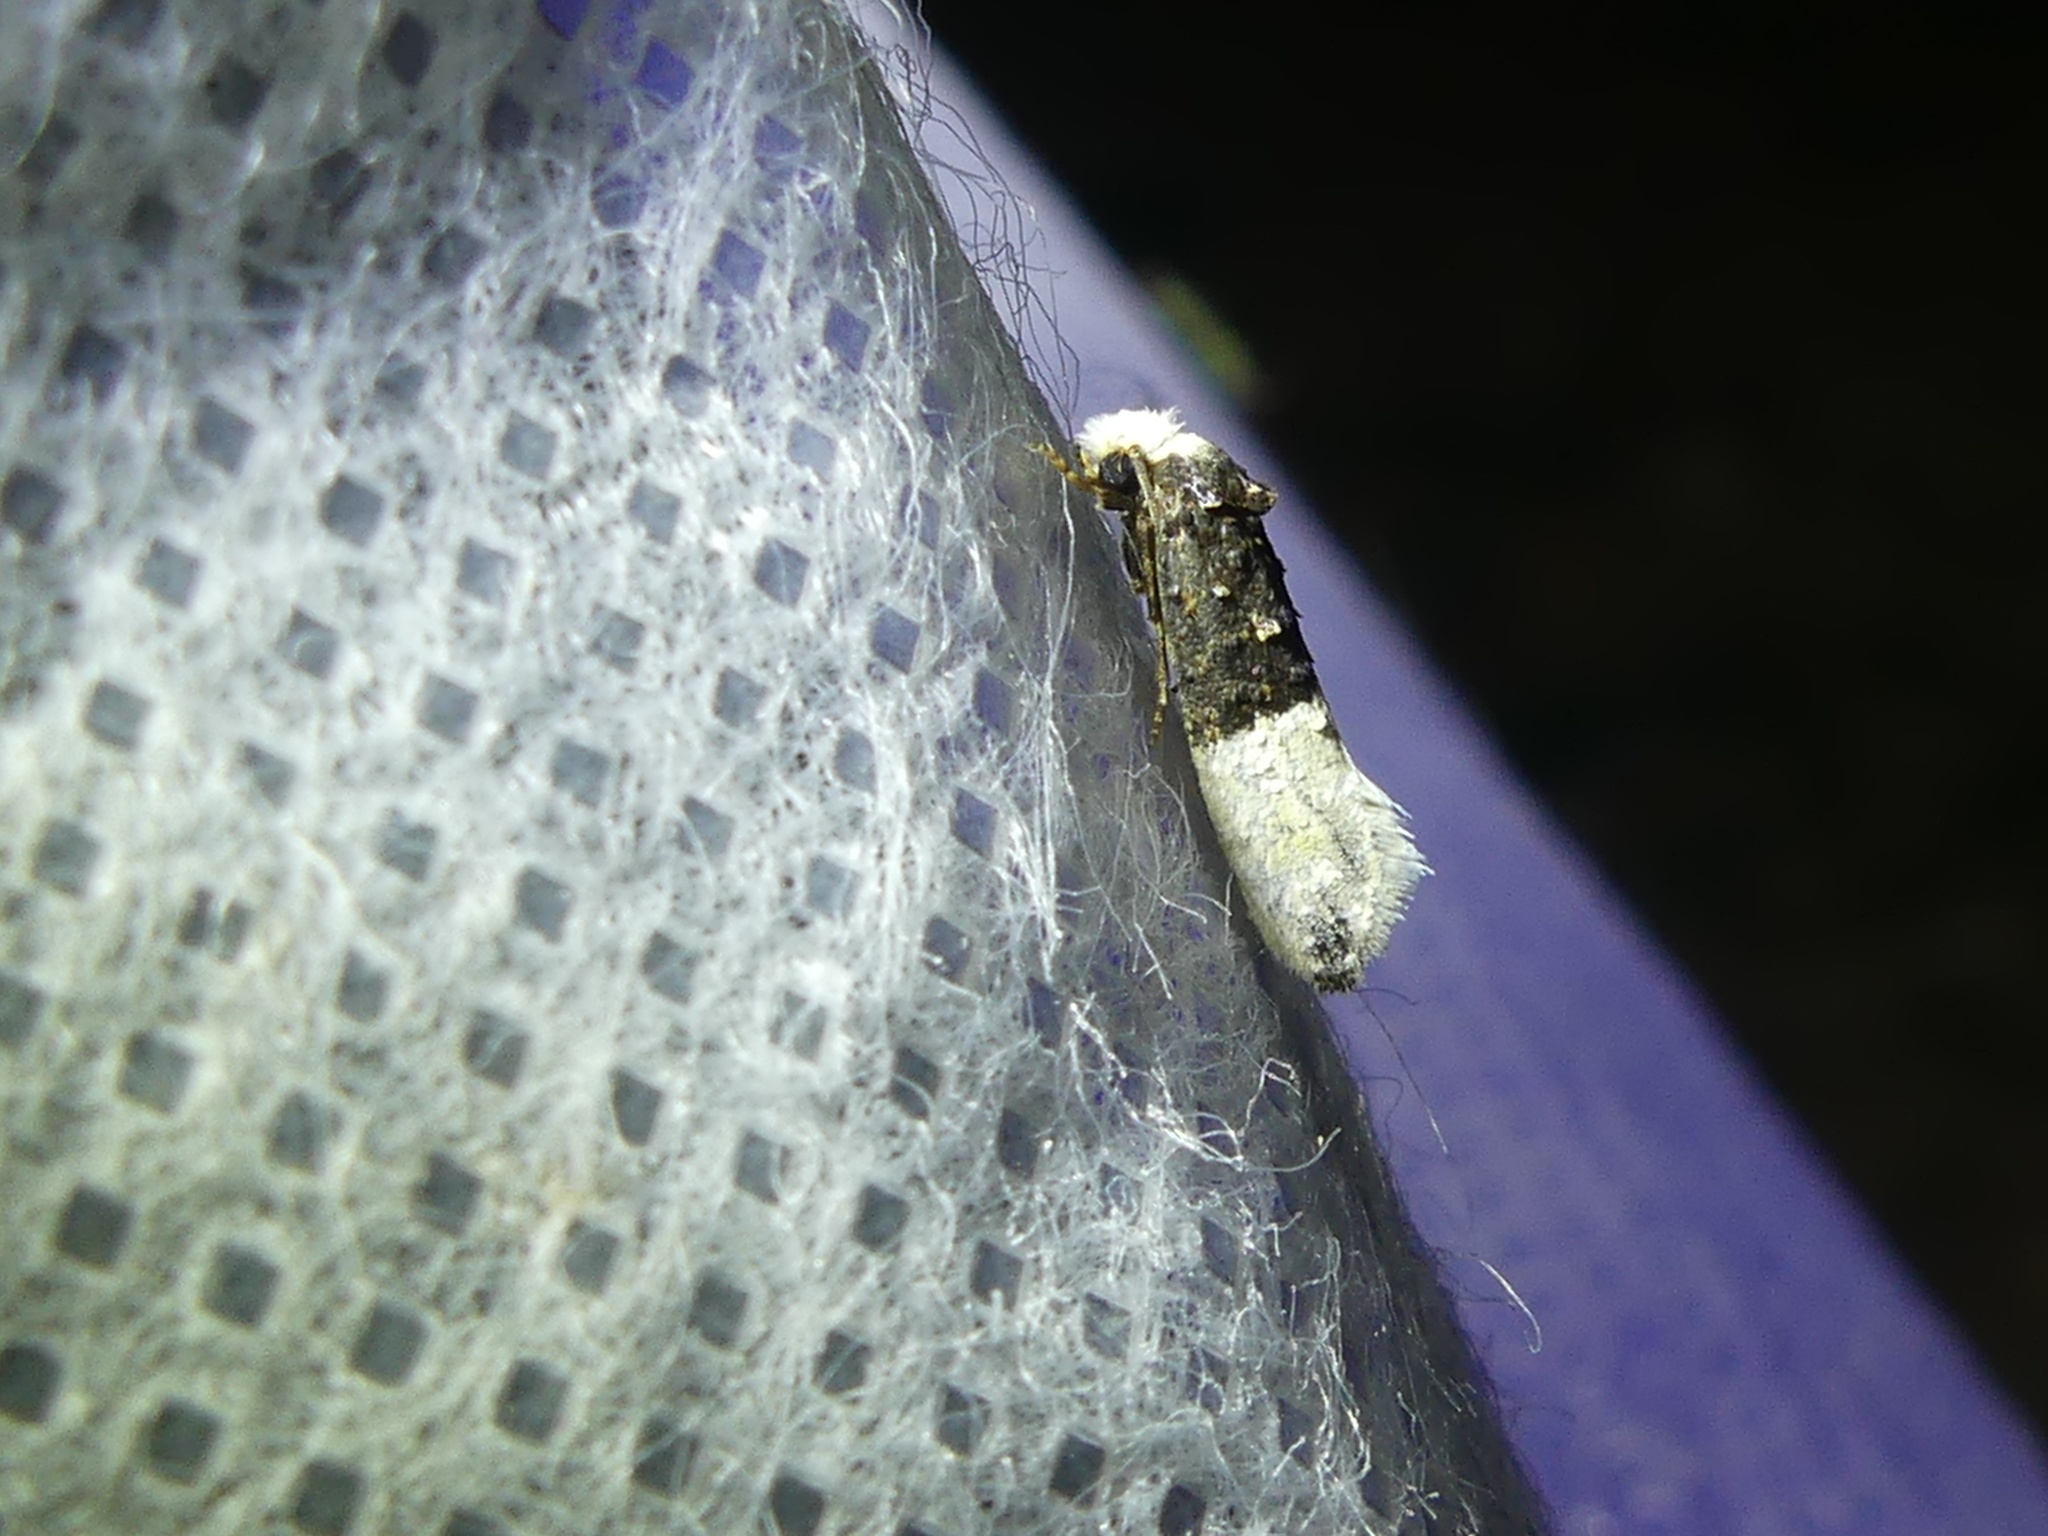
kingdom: Animalia
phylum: Arthropoda
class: Insecta
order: Lepidoptera
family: Tineidae
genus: Trichophaga
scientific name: Trichophaga bipartitella
